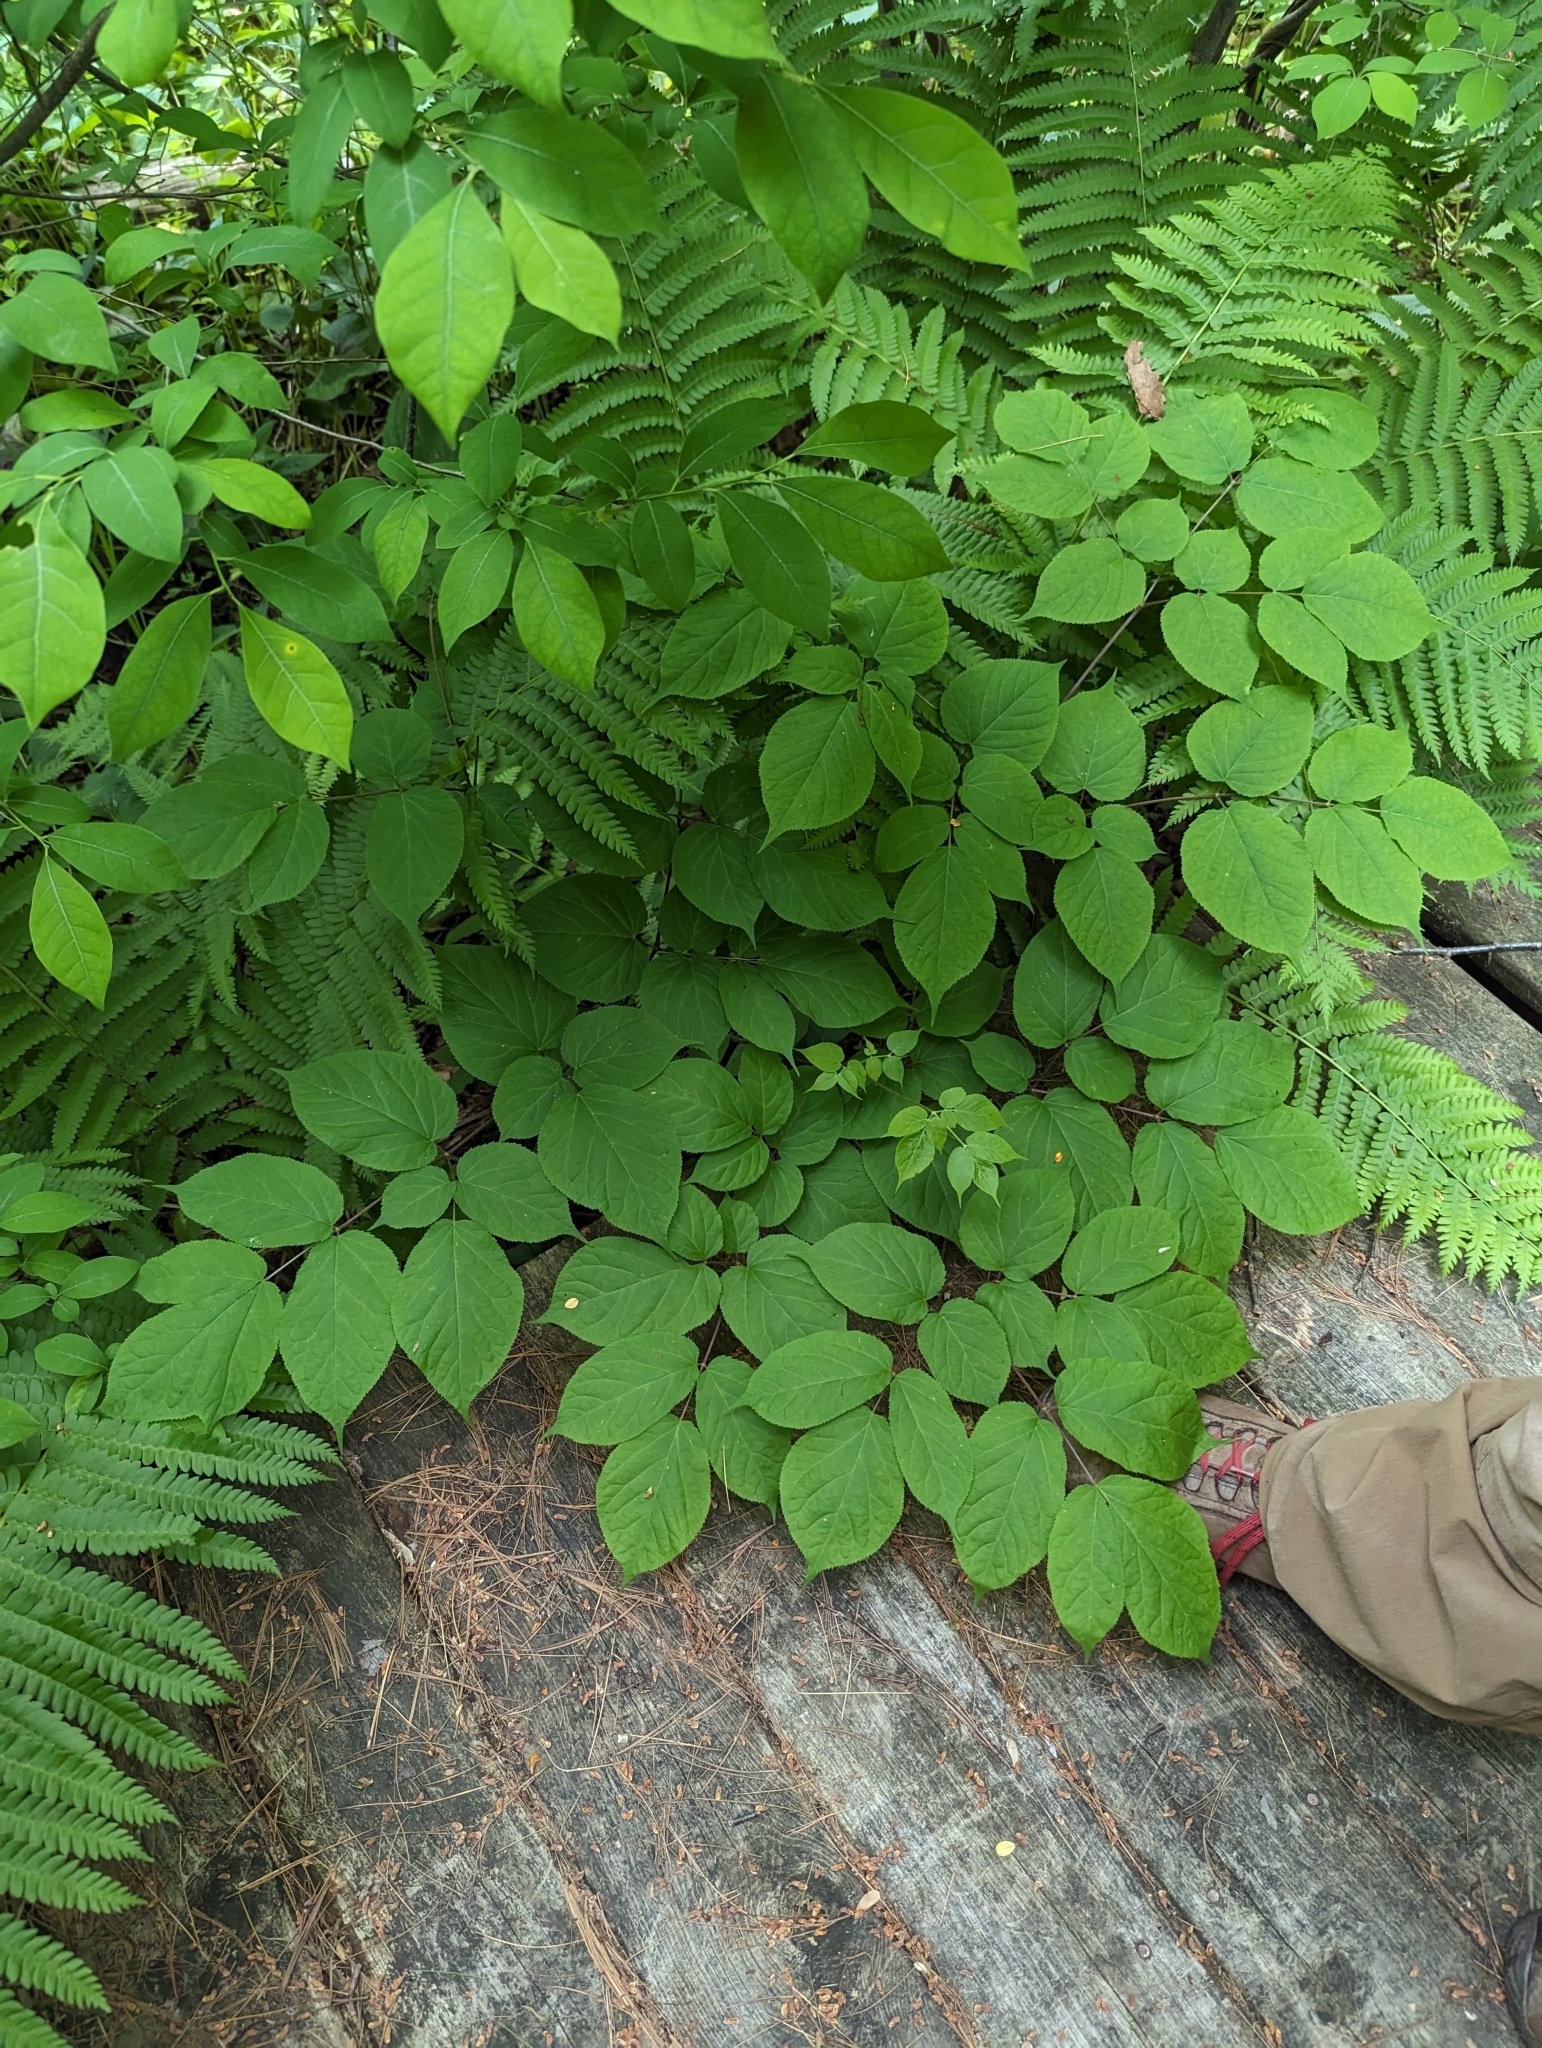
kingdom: Plantae
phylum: Tracheophyta
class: Magnoliopsida
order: Apiales
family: Araliaceae
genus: Aralia
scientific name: Aralia racemosa
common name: American-spikenard
